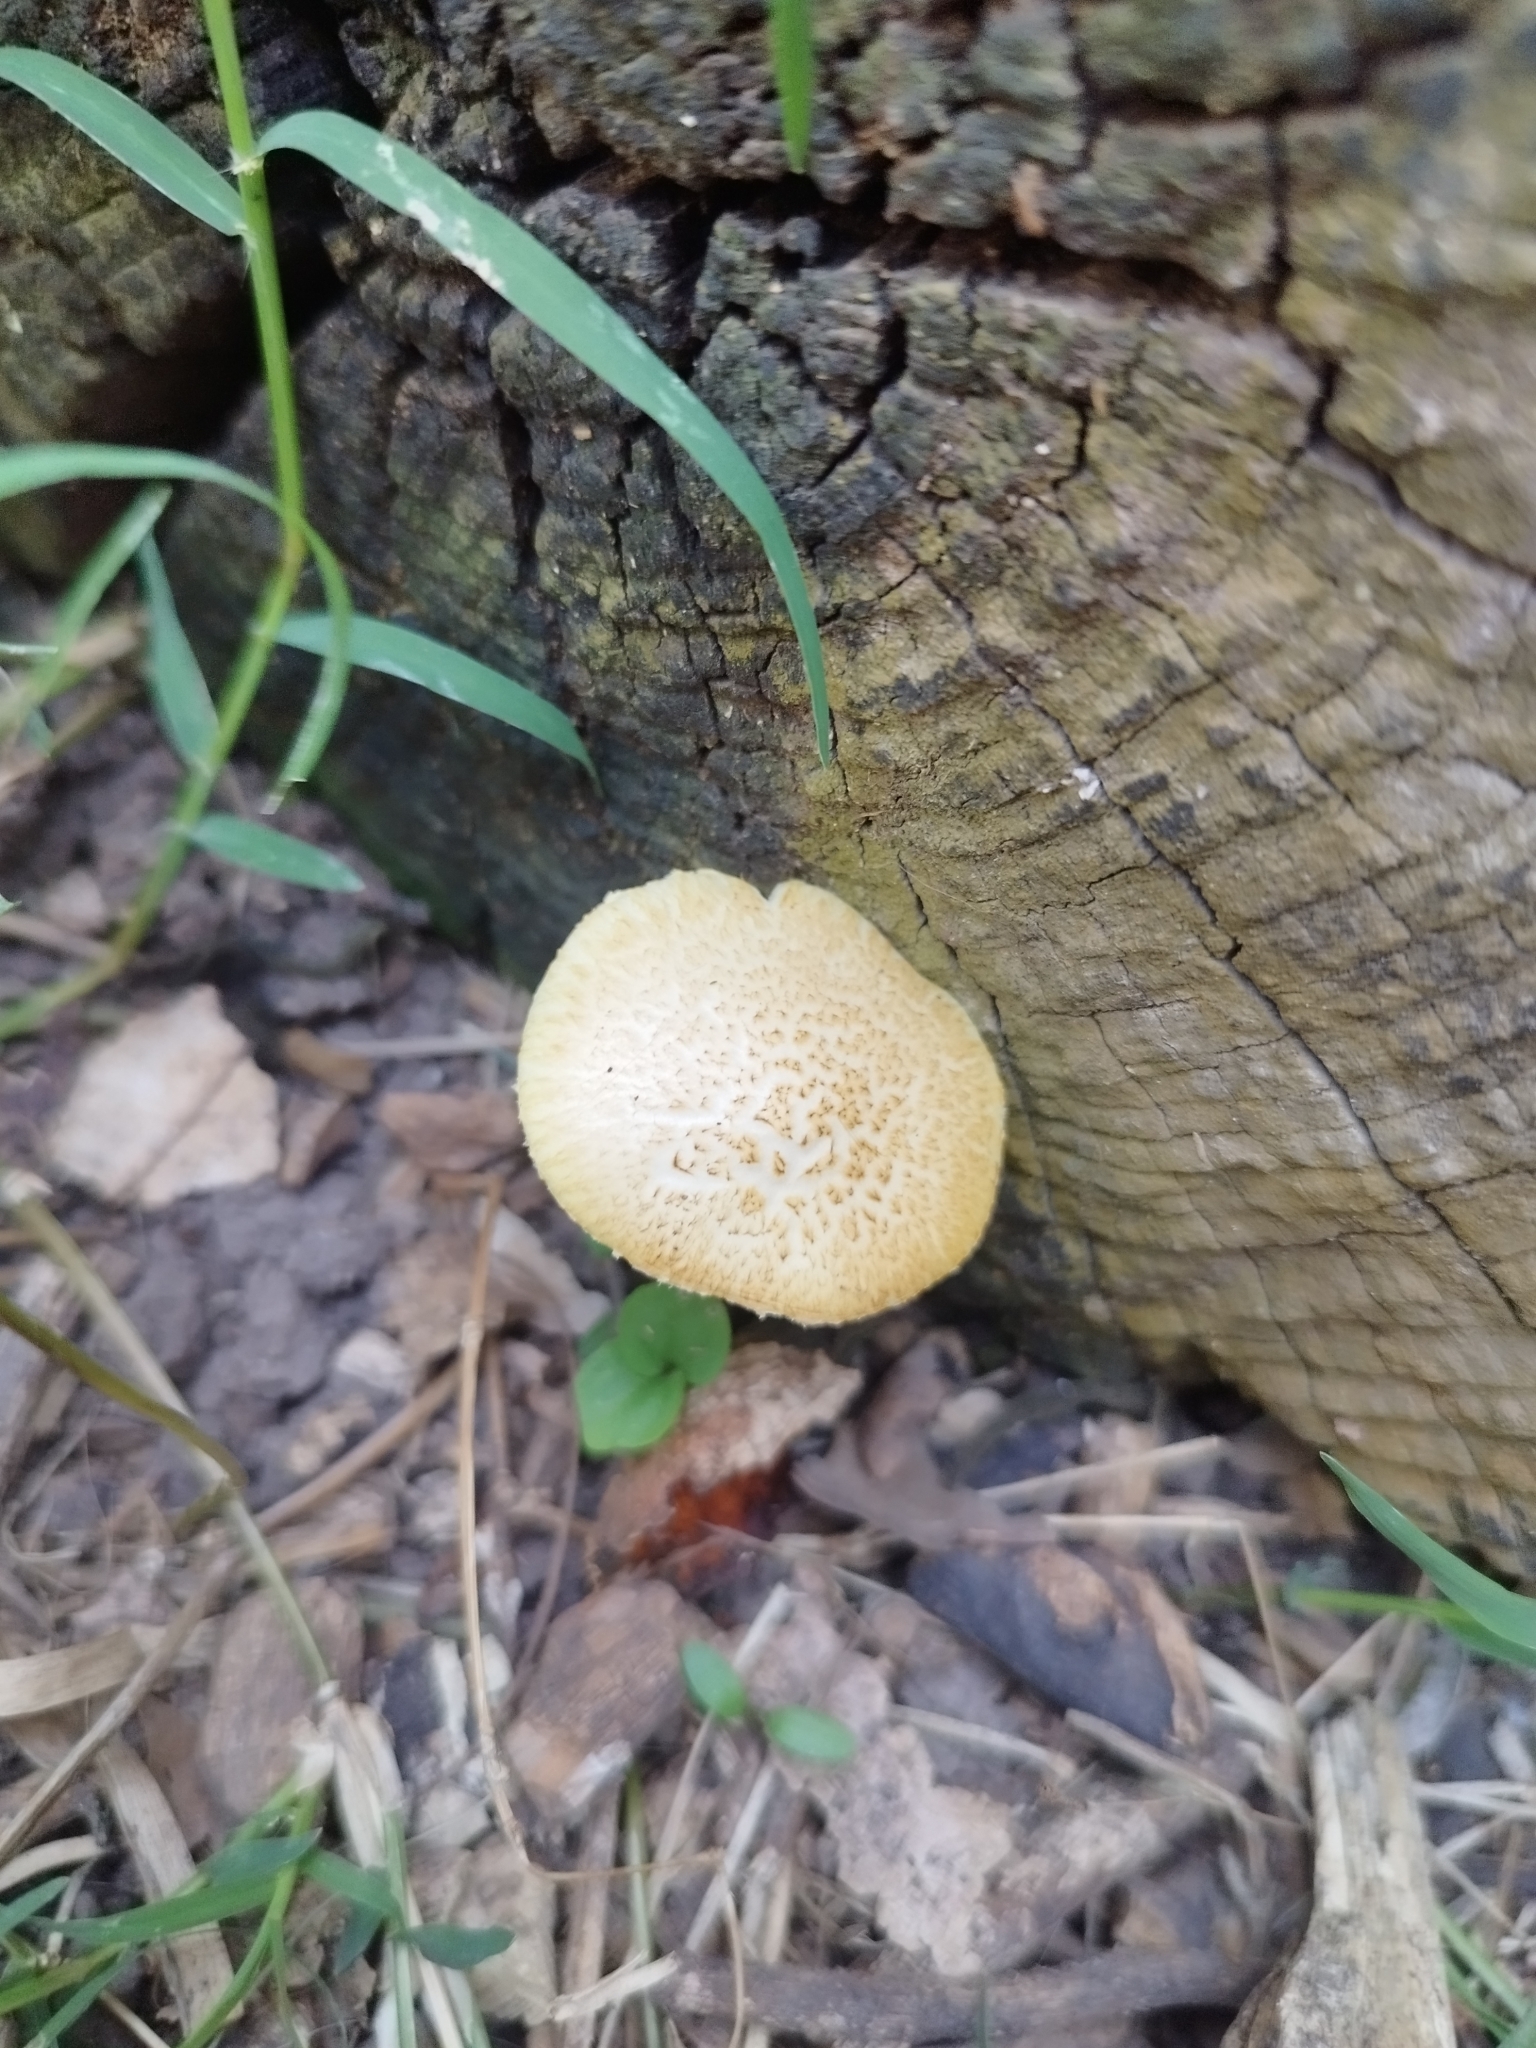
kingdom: Fungi
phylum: Basidiomycota
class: Agaricomycetes
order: Agaricales
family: Hymenogastraceae
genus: Gymnopilus
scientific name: Gymnopilus junonius
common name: Spectacular rustgill
